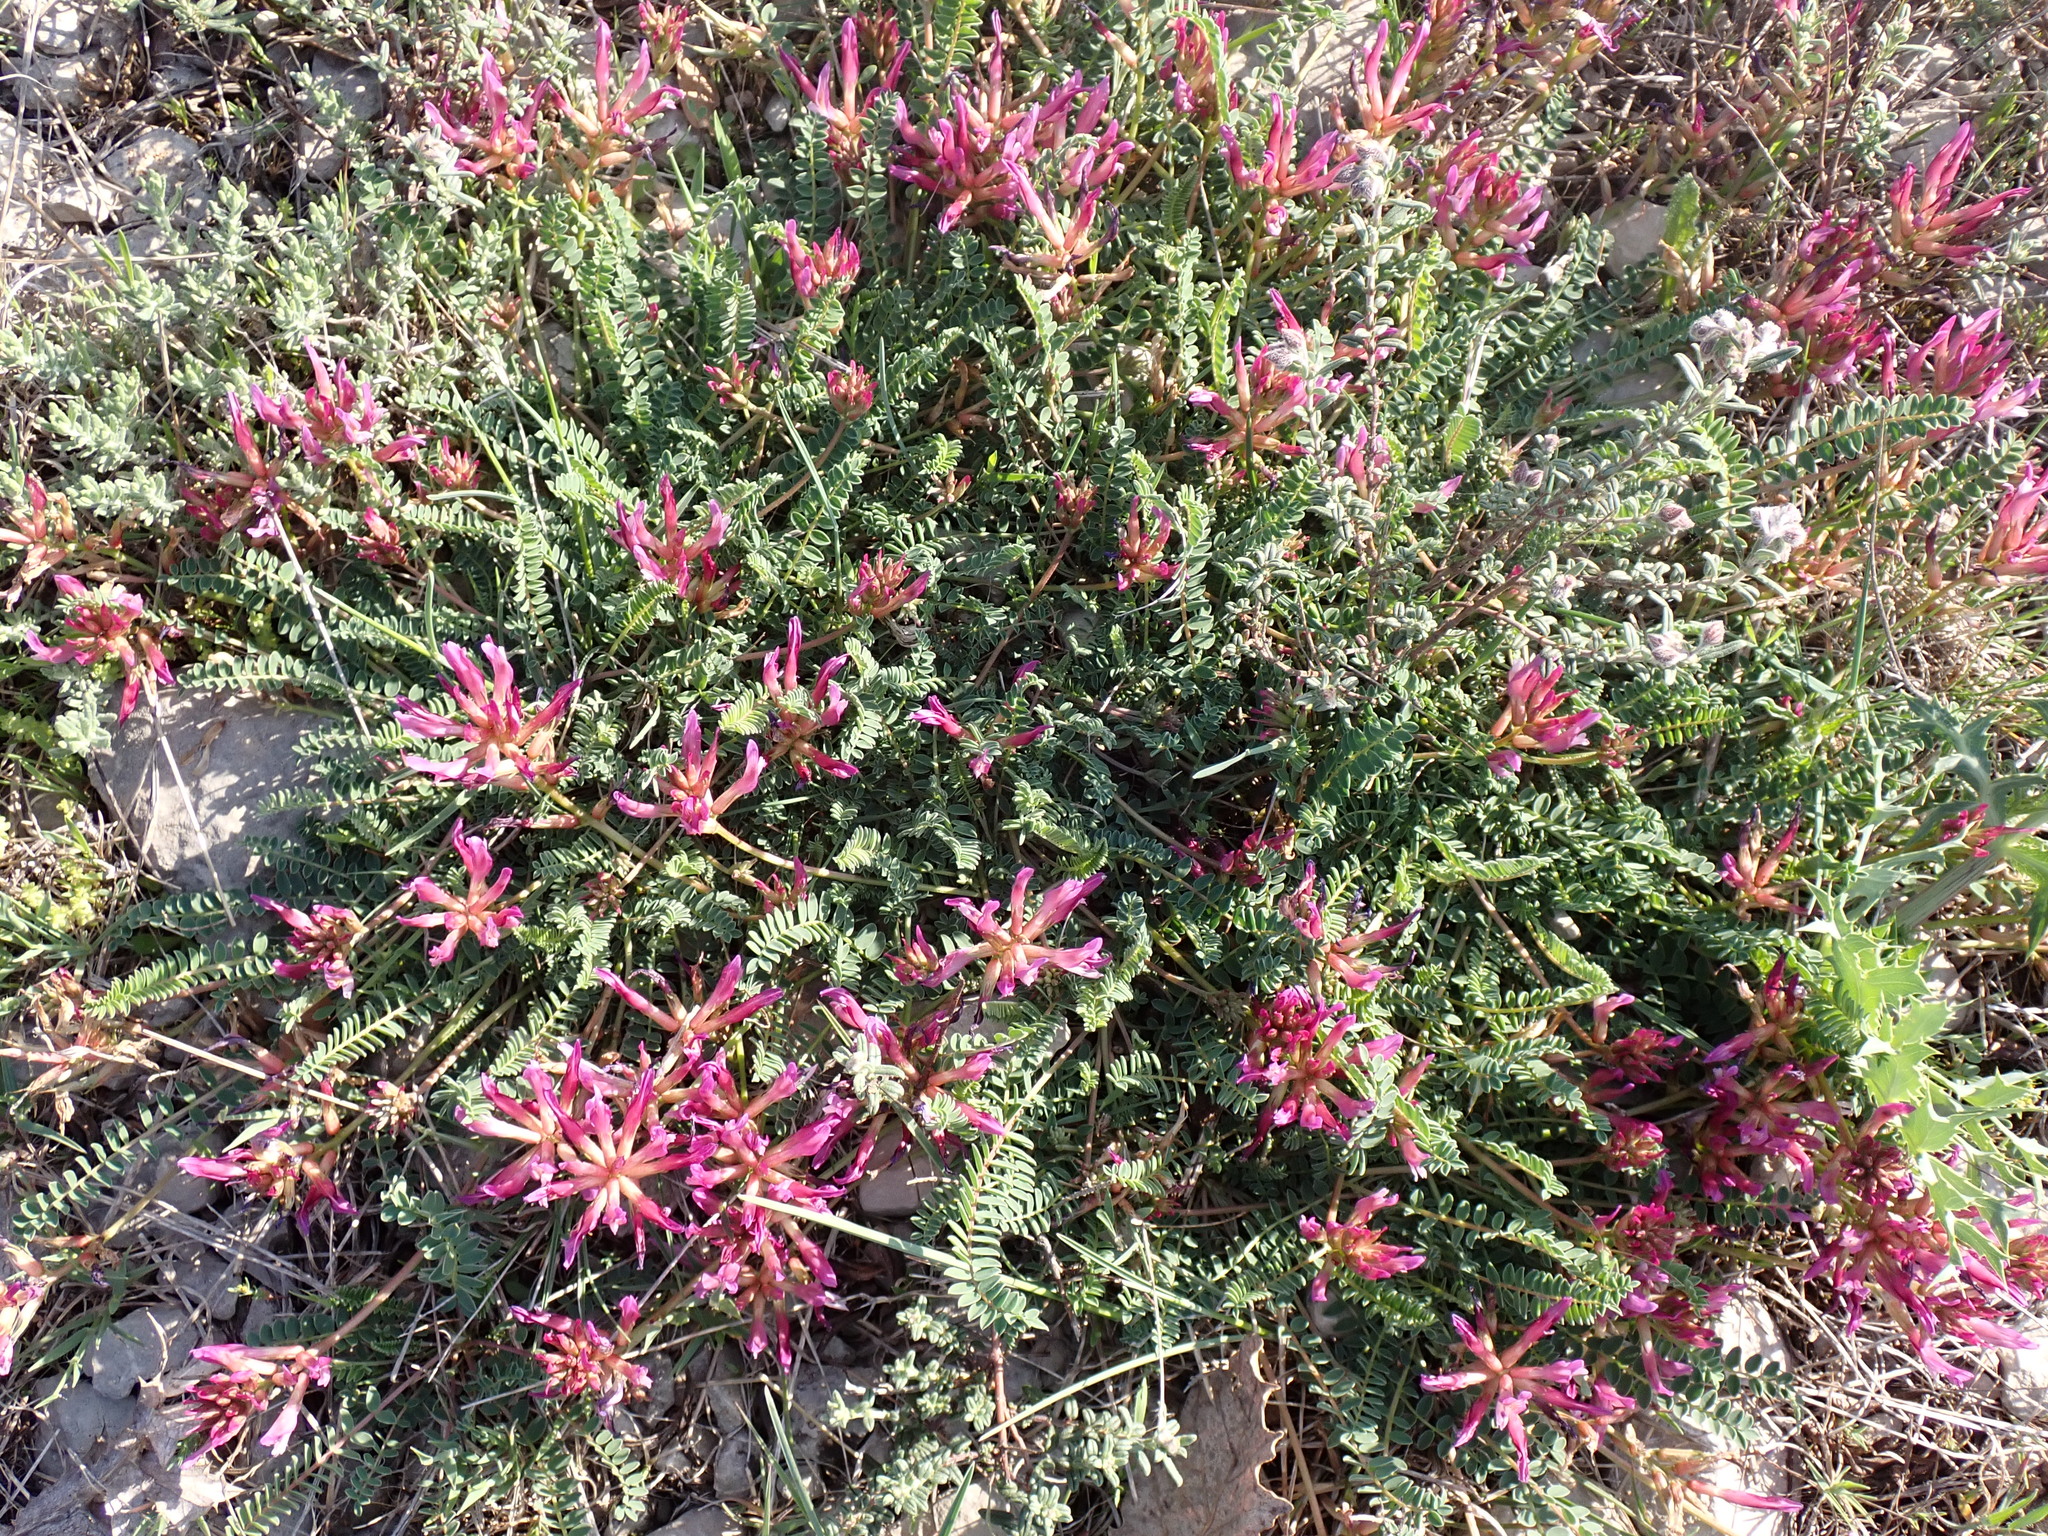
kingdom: Plantae
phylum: Tracheophyta
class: Magnoliopsida
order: Fabales
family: Fabaceae
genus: Astragalus
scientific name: Astragalus monspessulanus
